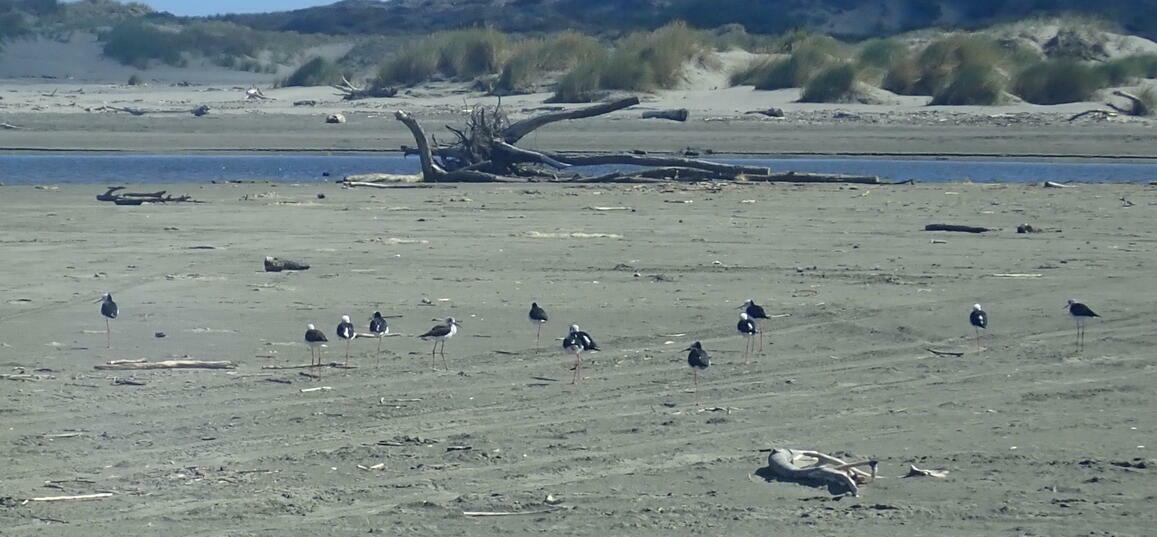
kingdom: Animalia
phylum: Chordata
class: Aves
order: Charadriiformes
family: Recurvirostridae
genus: Himantopus
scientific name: Himantopus leucocephalus
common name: White-headed stilt
